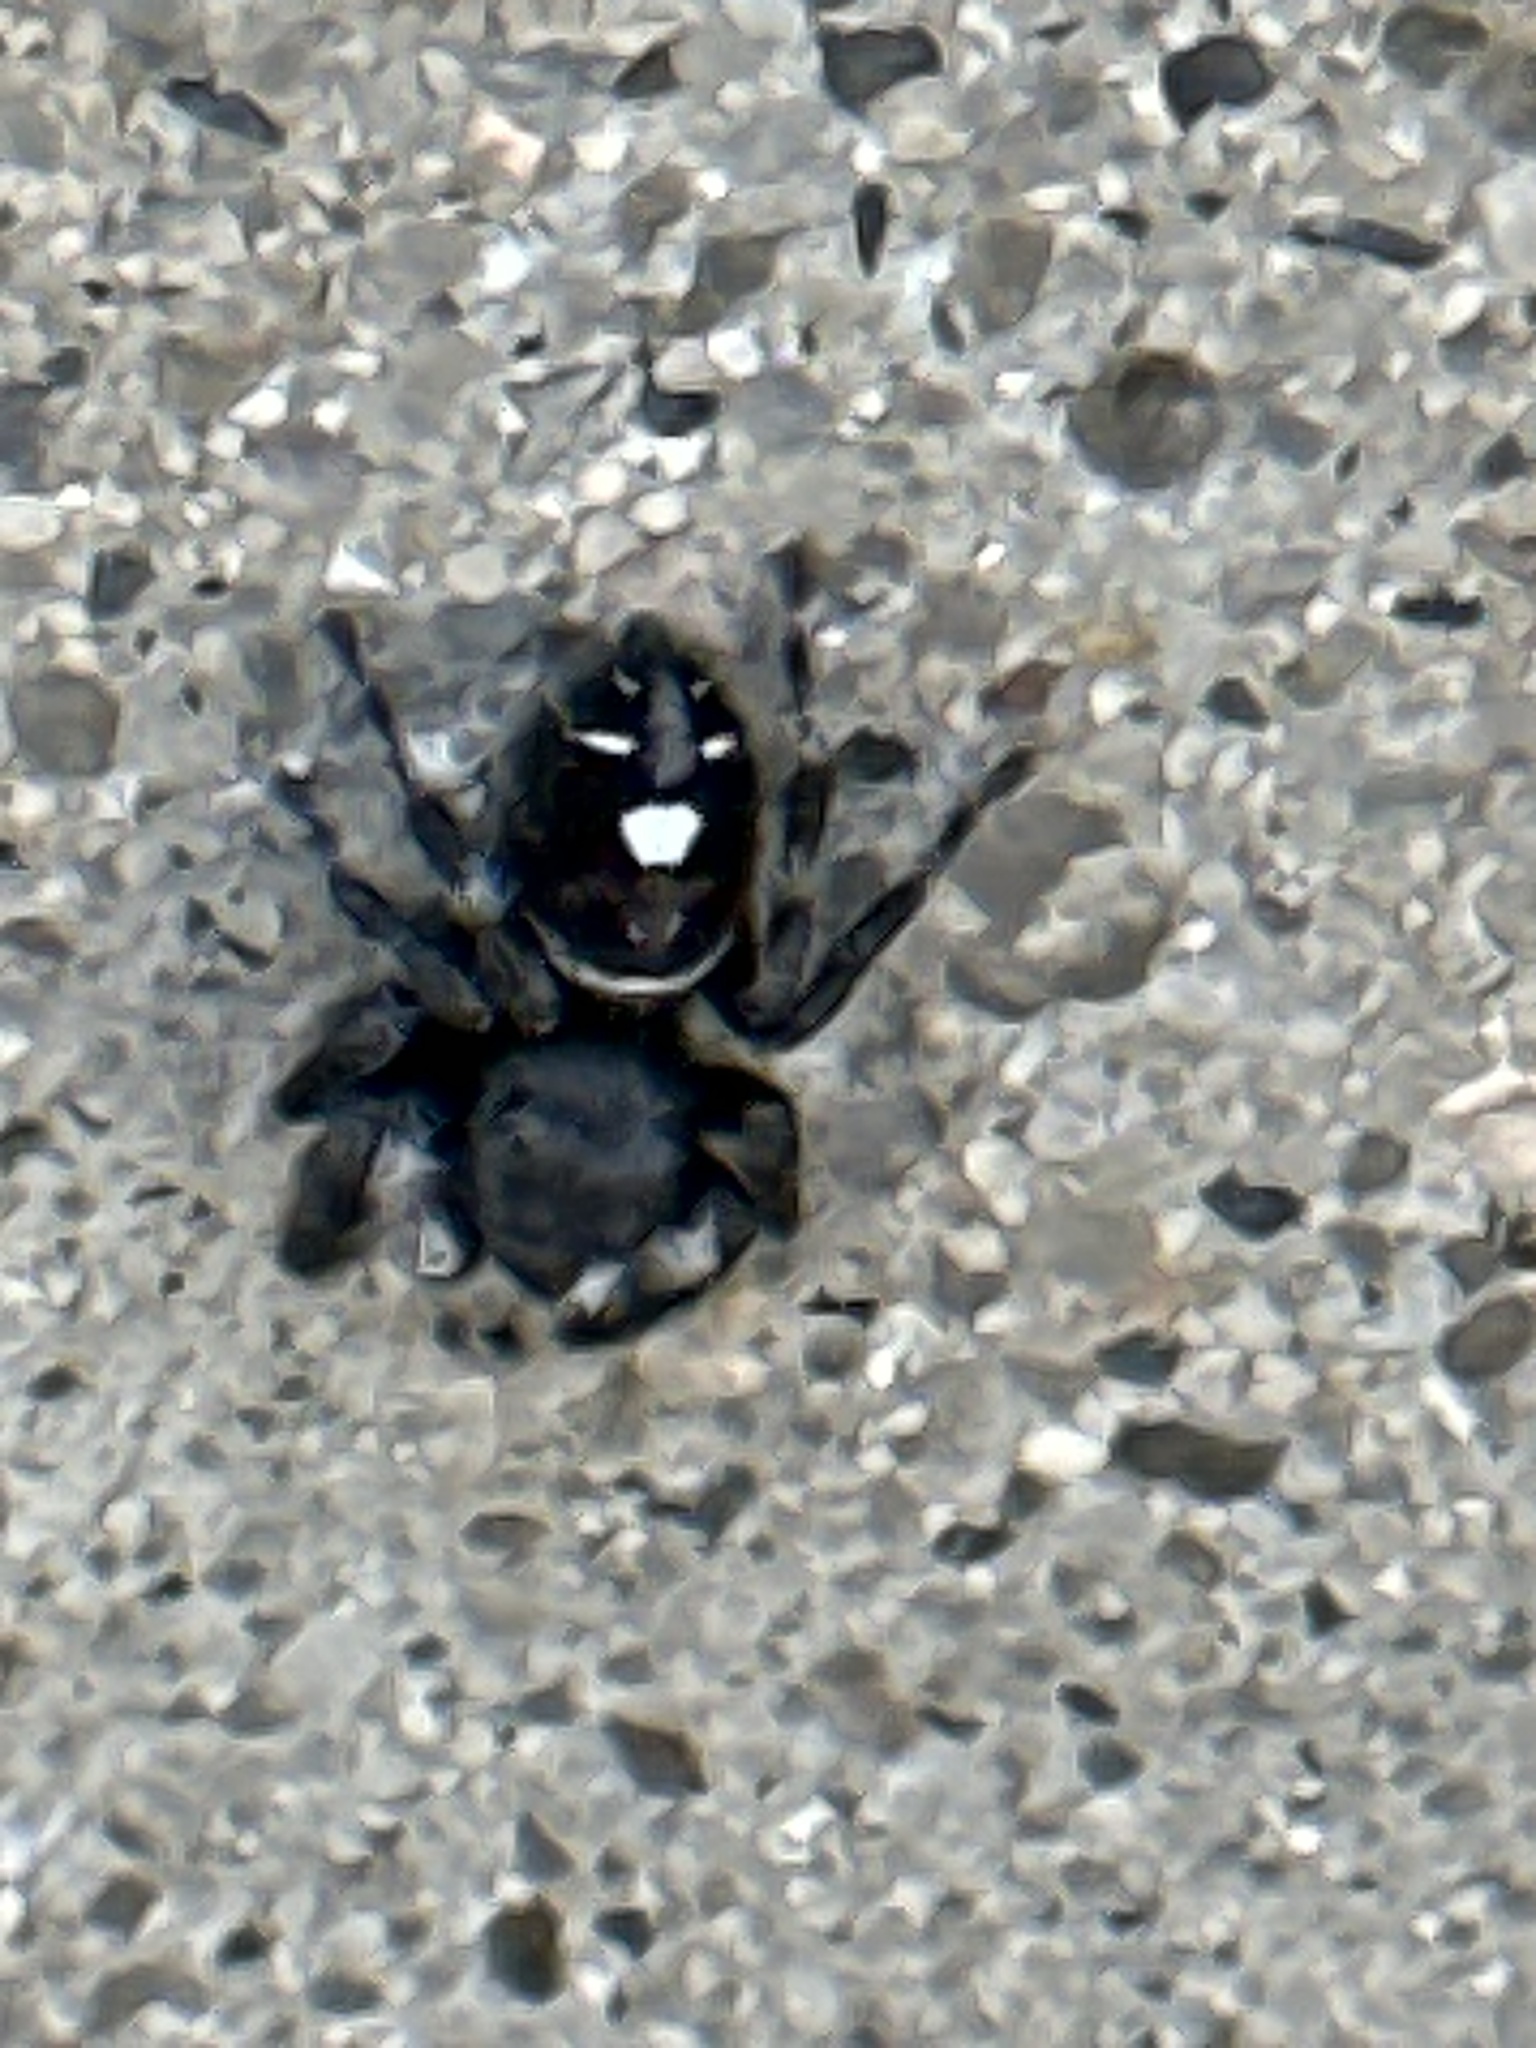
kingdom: Animalia
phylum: Arthropoda
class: Arachnida
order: Araneae
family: Salticidae
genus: Phidippus
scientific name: Phidippus audax
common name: Bold jumper
